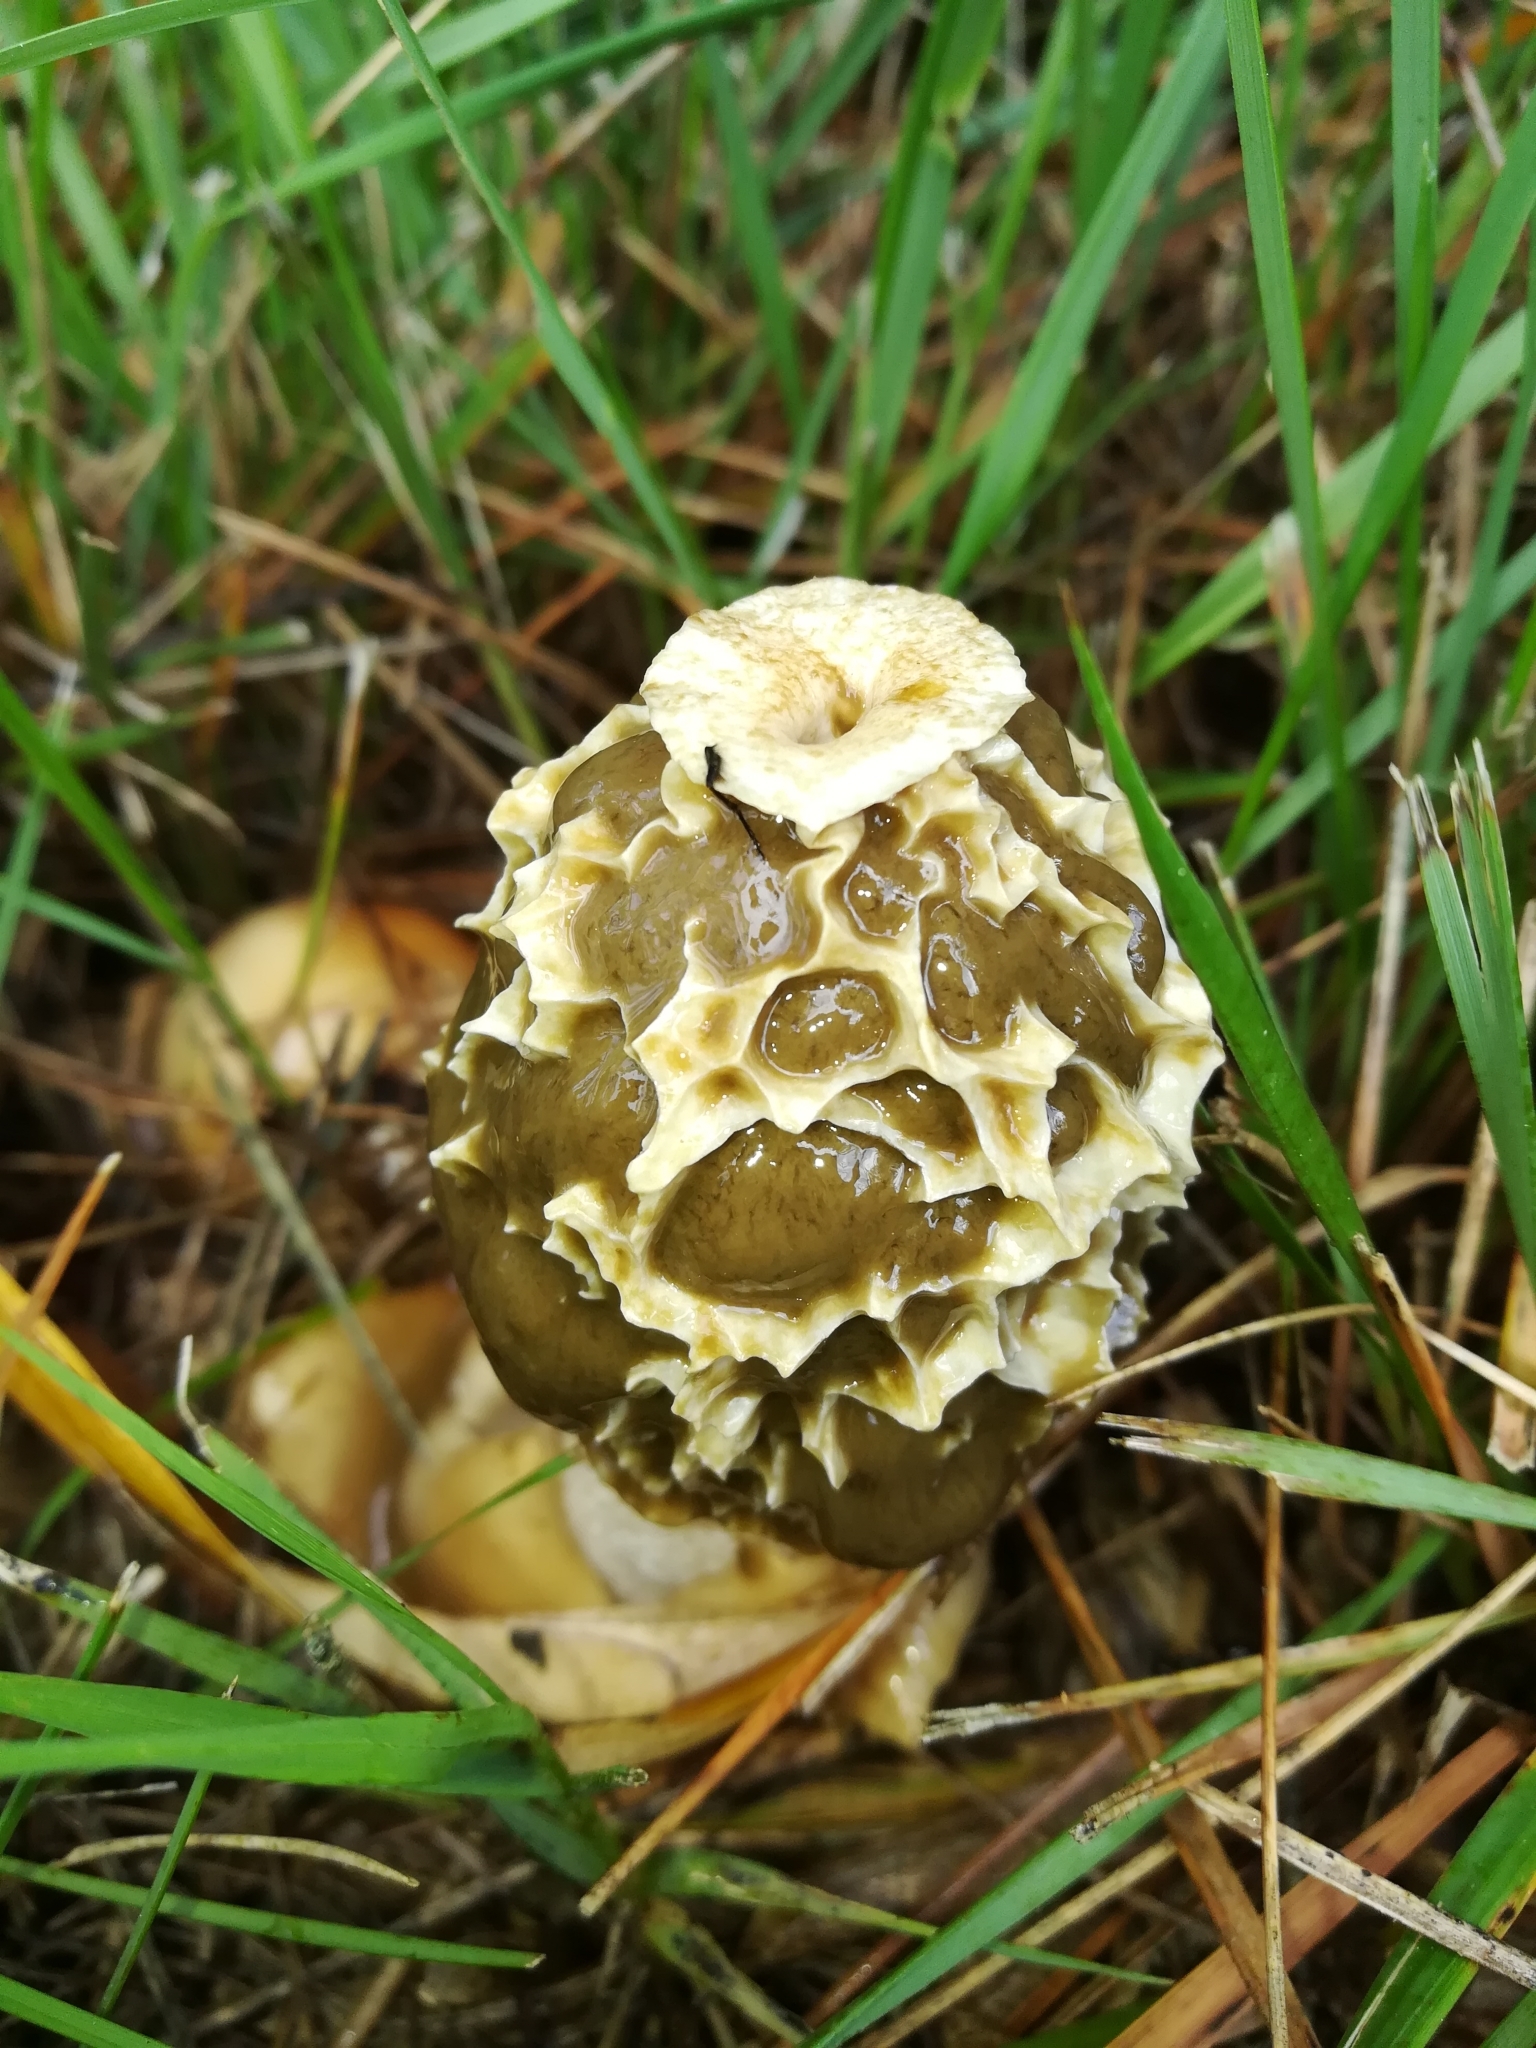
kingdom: Fungi
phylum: Basidiomycota
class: Agaricomycetes
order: Phallales
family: Phallaceae
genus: Phallus
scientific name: Phallus impudicus
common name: Common stinkhorn
